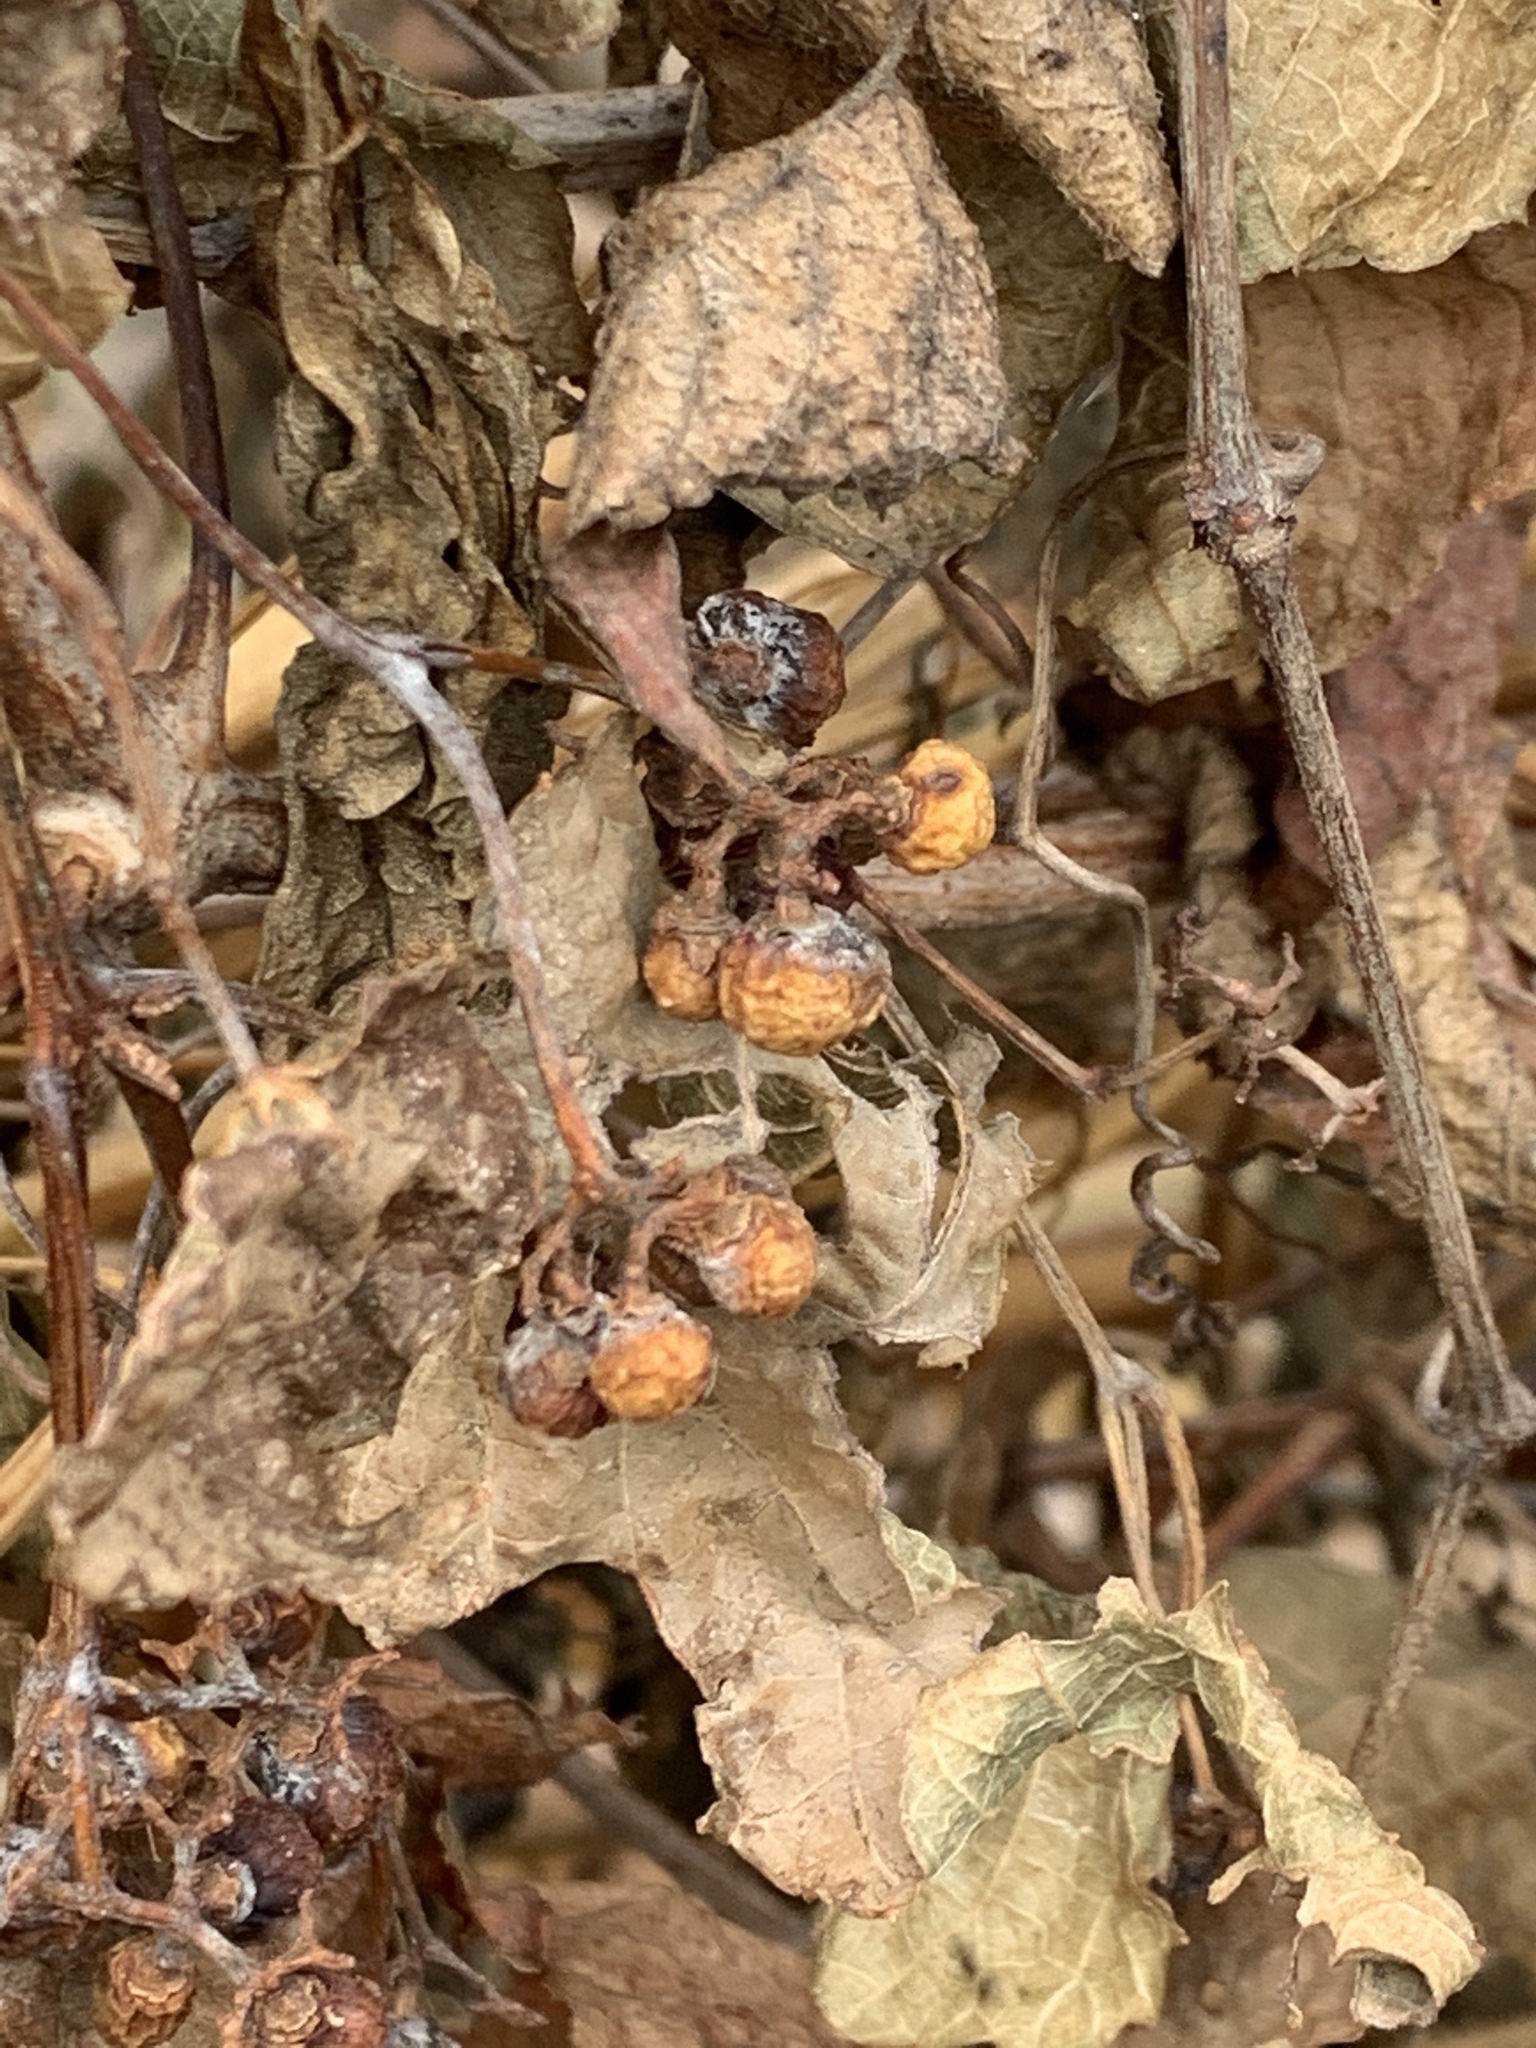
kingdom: Plantae
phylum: Tracheophyta
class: Magnoliopsida
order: Vitales
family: Vitaceae
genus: Ampelopsis
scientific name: Ampelopsis glandulosa
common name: Amur peppervine
